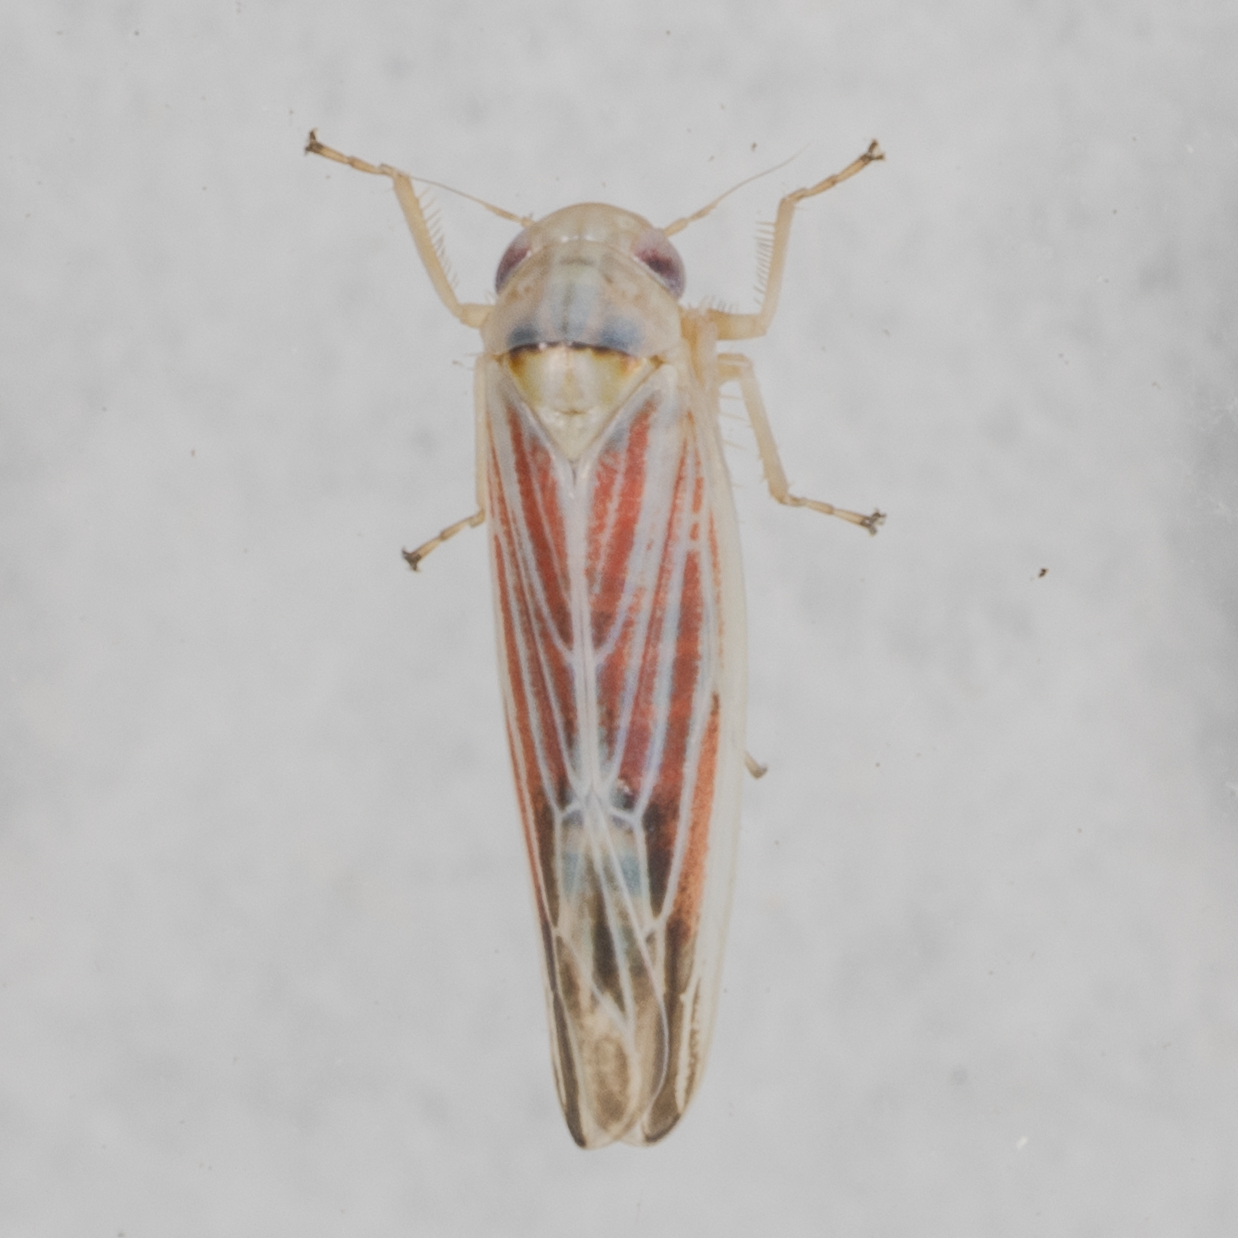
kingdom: Animalia
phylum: Arthropoda
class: Insecta
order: Hemiptera
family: Cicadellidae
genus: Balclutha
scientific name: Balclutha rubrostriata
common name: Red-streaked leafhopper
